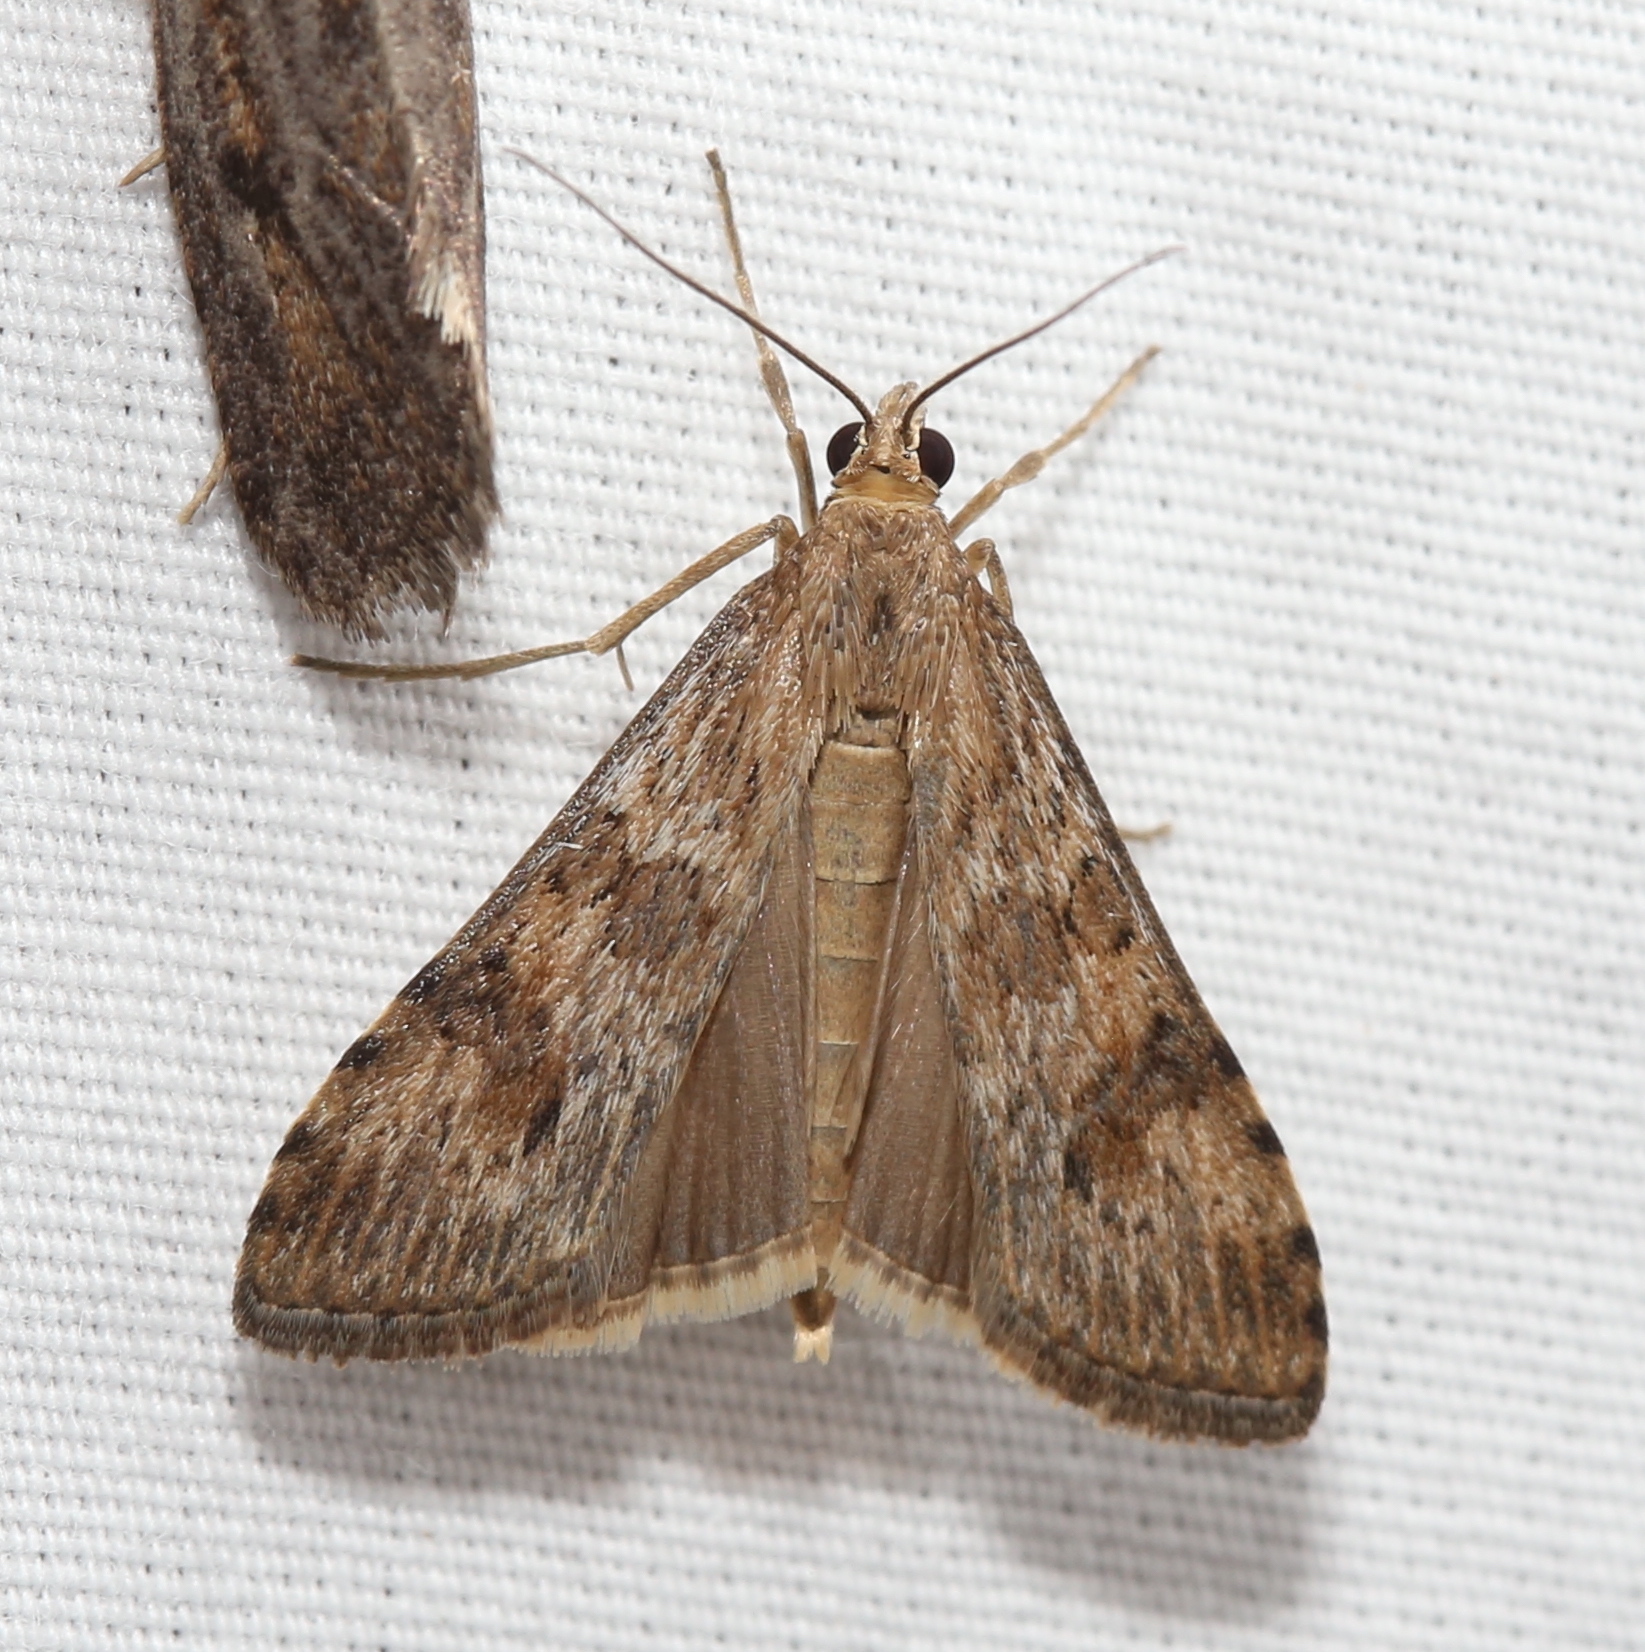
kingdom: Animalia
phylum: Arthropoda
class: Insecta
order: Lepidoptera
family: Crambidae
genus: Nomophila
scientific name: Nomophila nearctica
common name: American rush veneer
